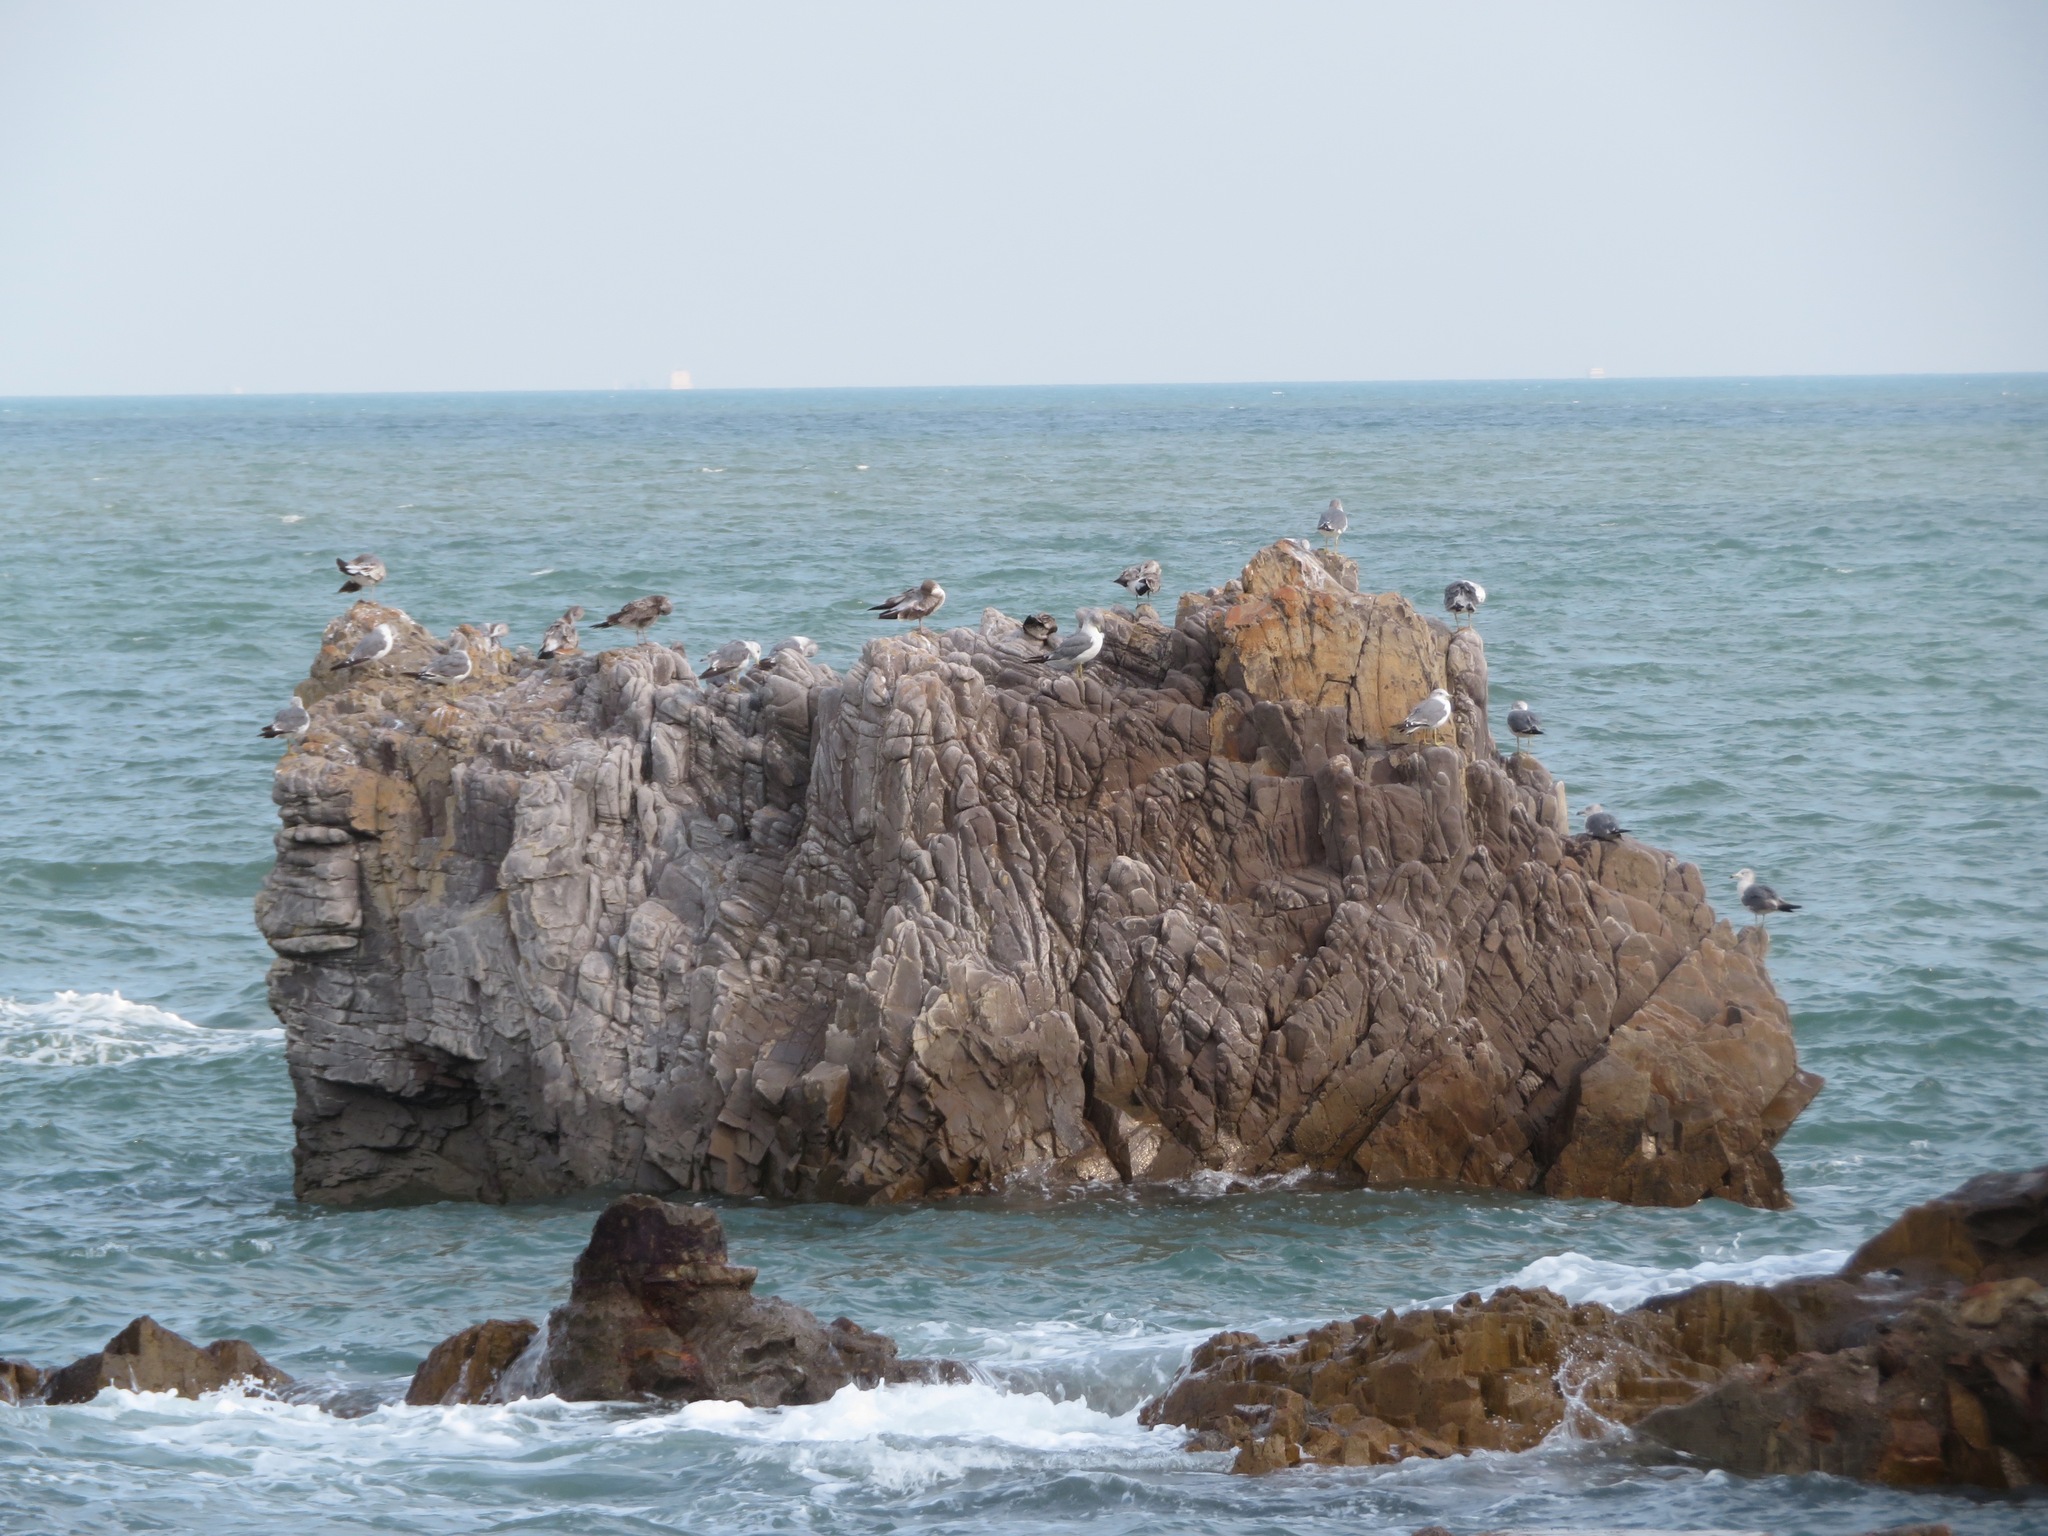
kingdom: Animalia
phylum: Chordata
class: Aves
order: Charadriiformes
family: Laridae
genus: Larus
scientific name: Larus crassirostris
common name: Black-tailed gull
